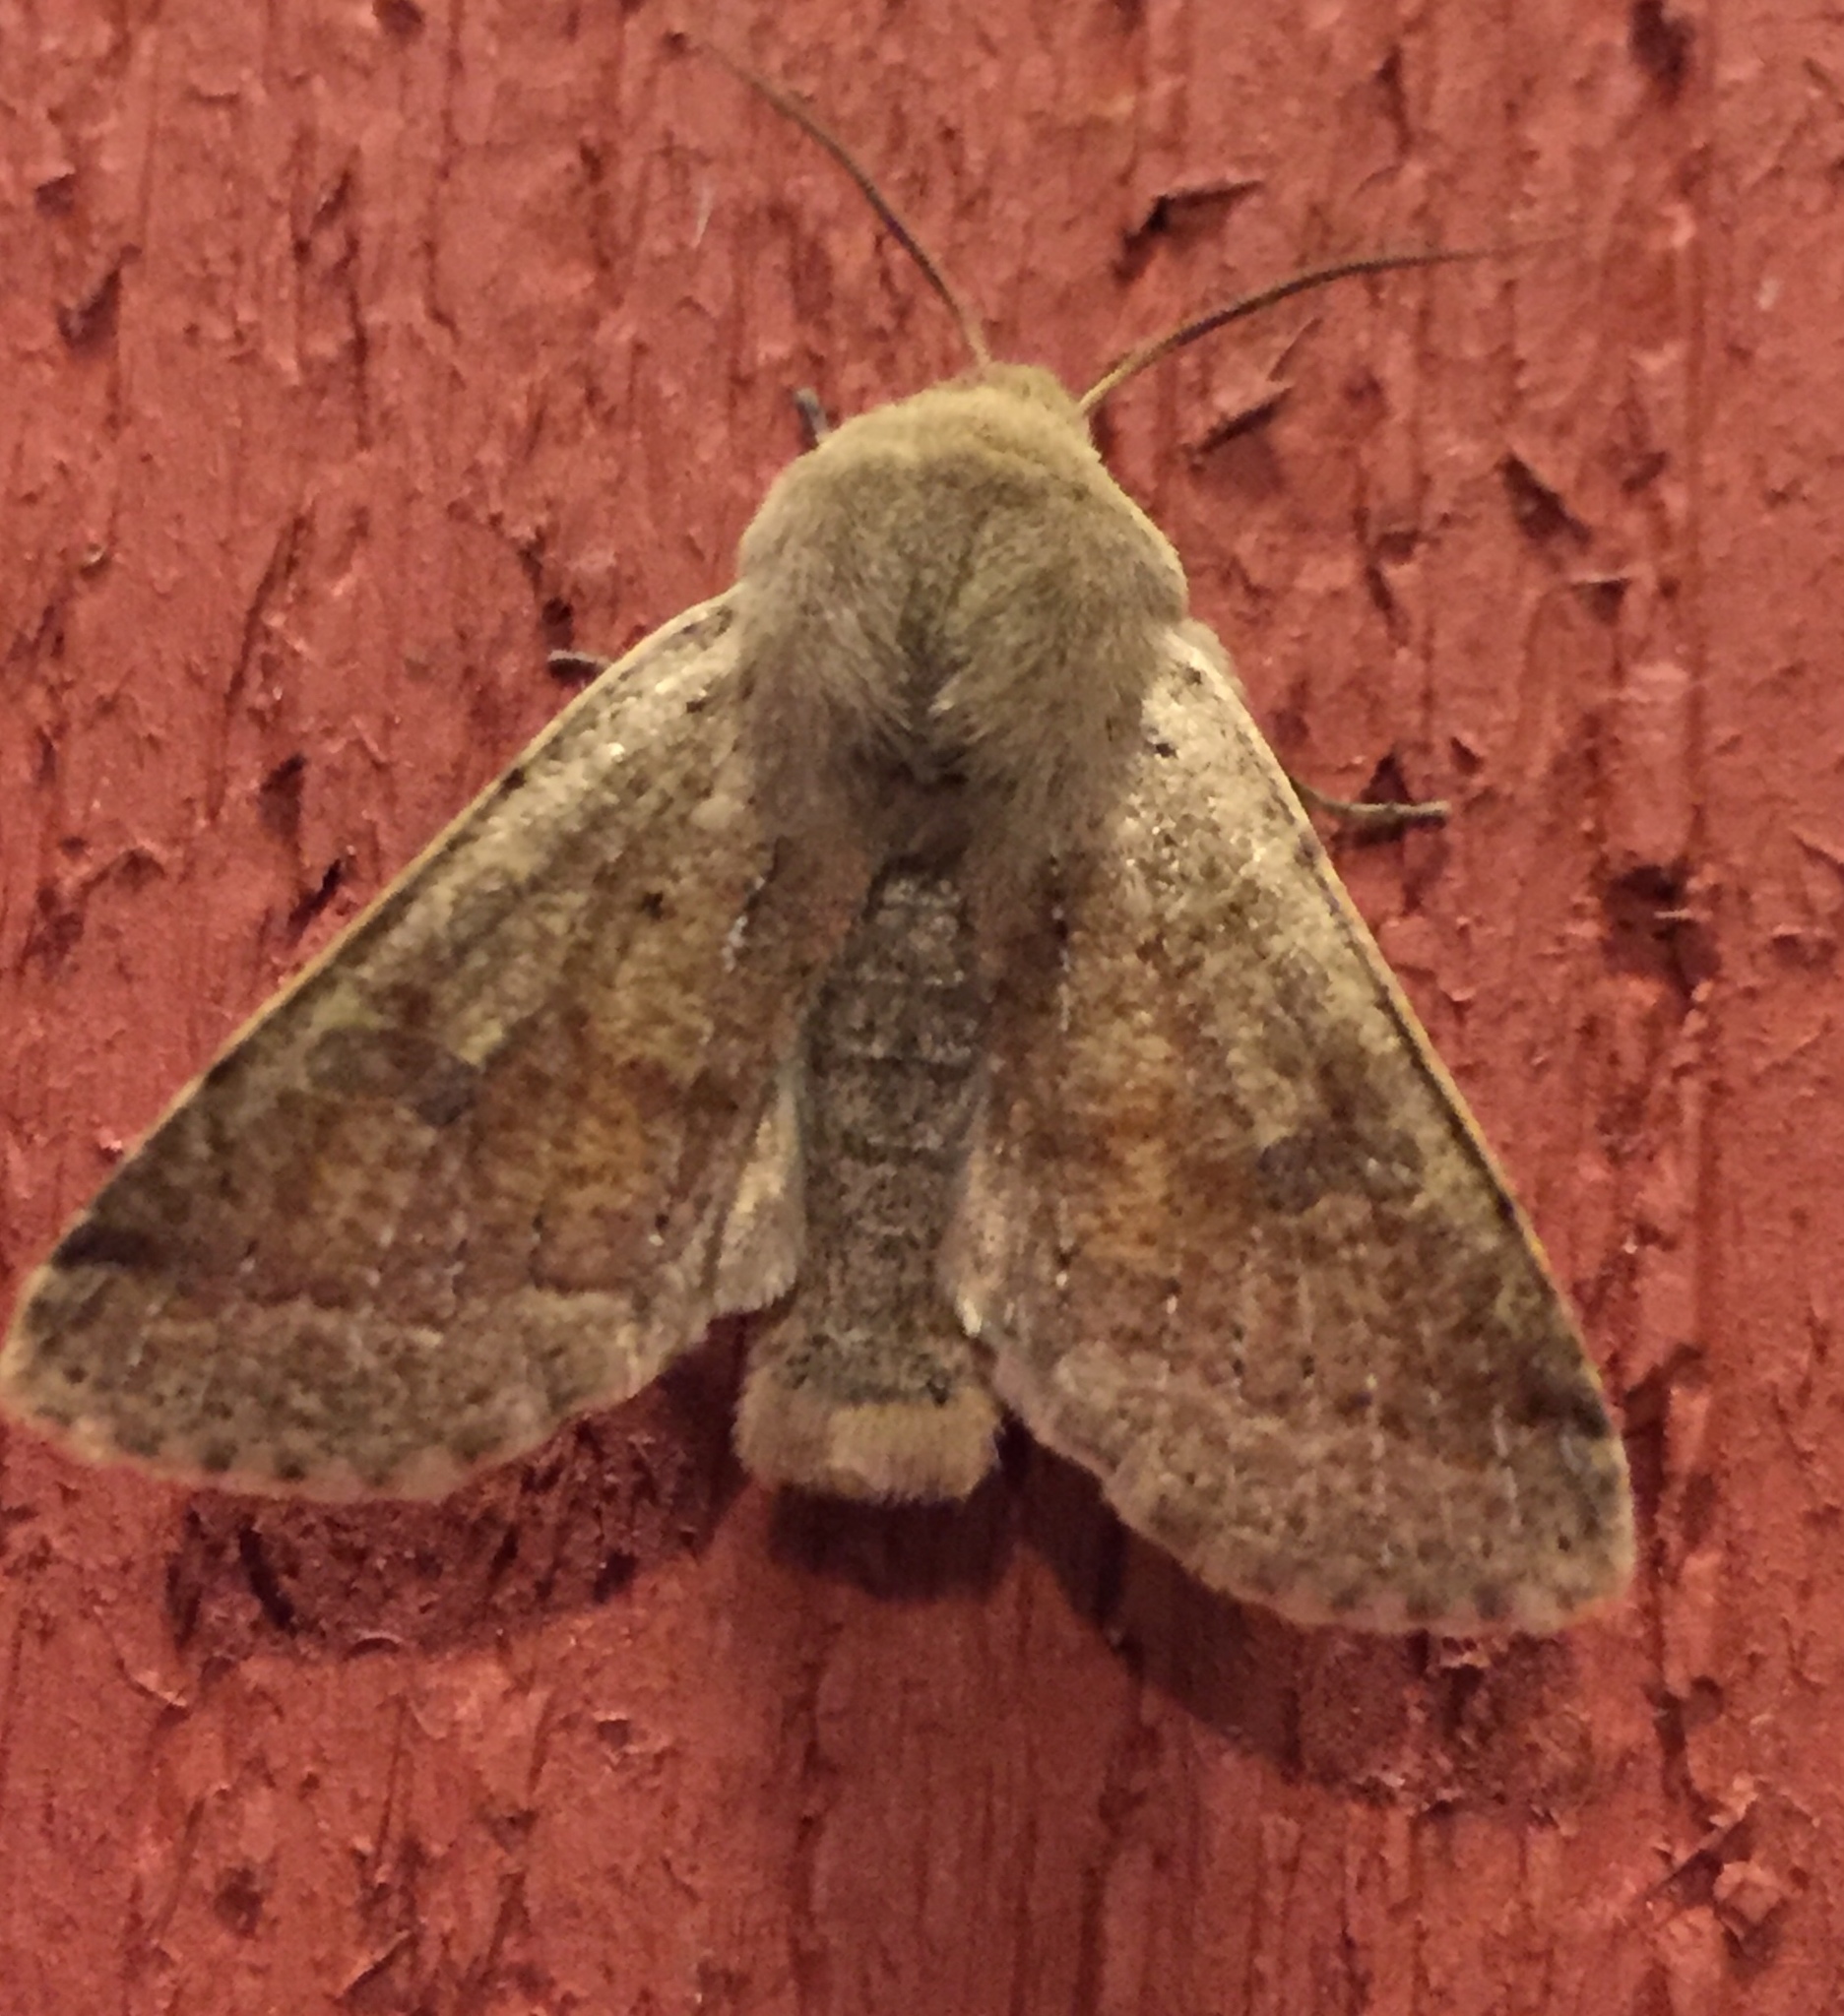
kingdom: Animalia
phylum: Arthropoda
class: Insecta
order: Lepidoptera
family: Noctuidae
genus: Orthosia
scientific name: Orthosia pacifica
